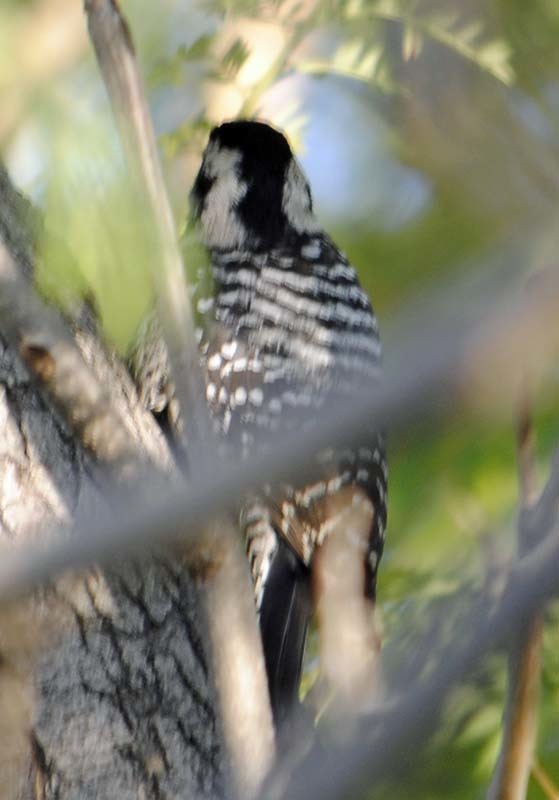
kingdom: Animalia
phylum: Chordata
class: Aves
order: Piciformes
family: Picidae
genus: Dryobates
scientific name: Dryobates scalaris
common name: Ladder-backed woodpecker
